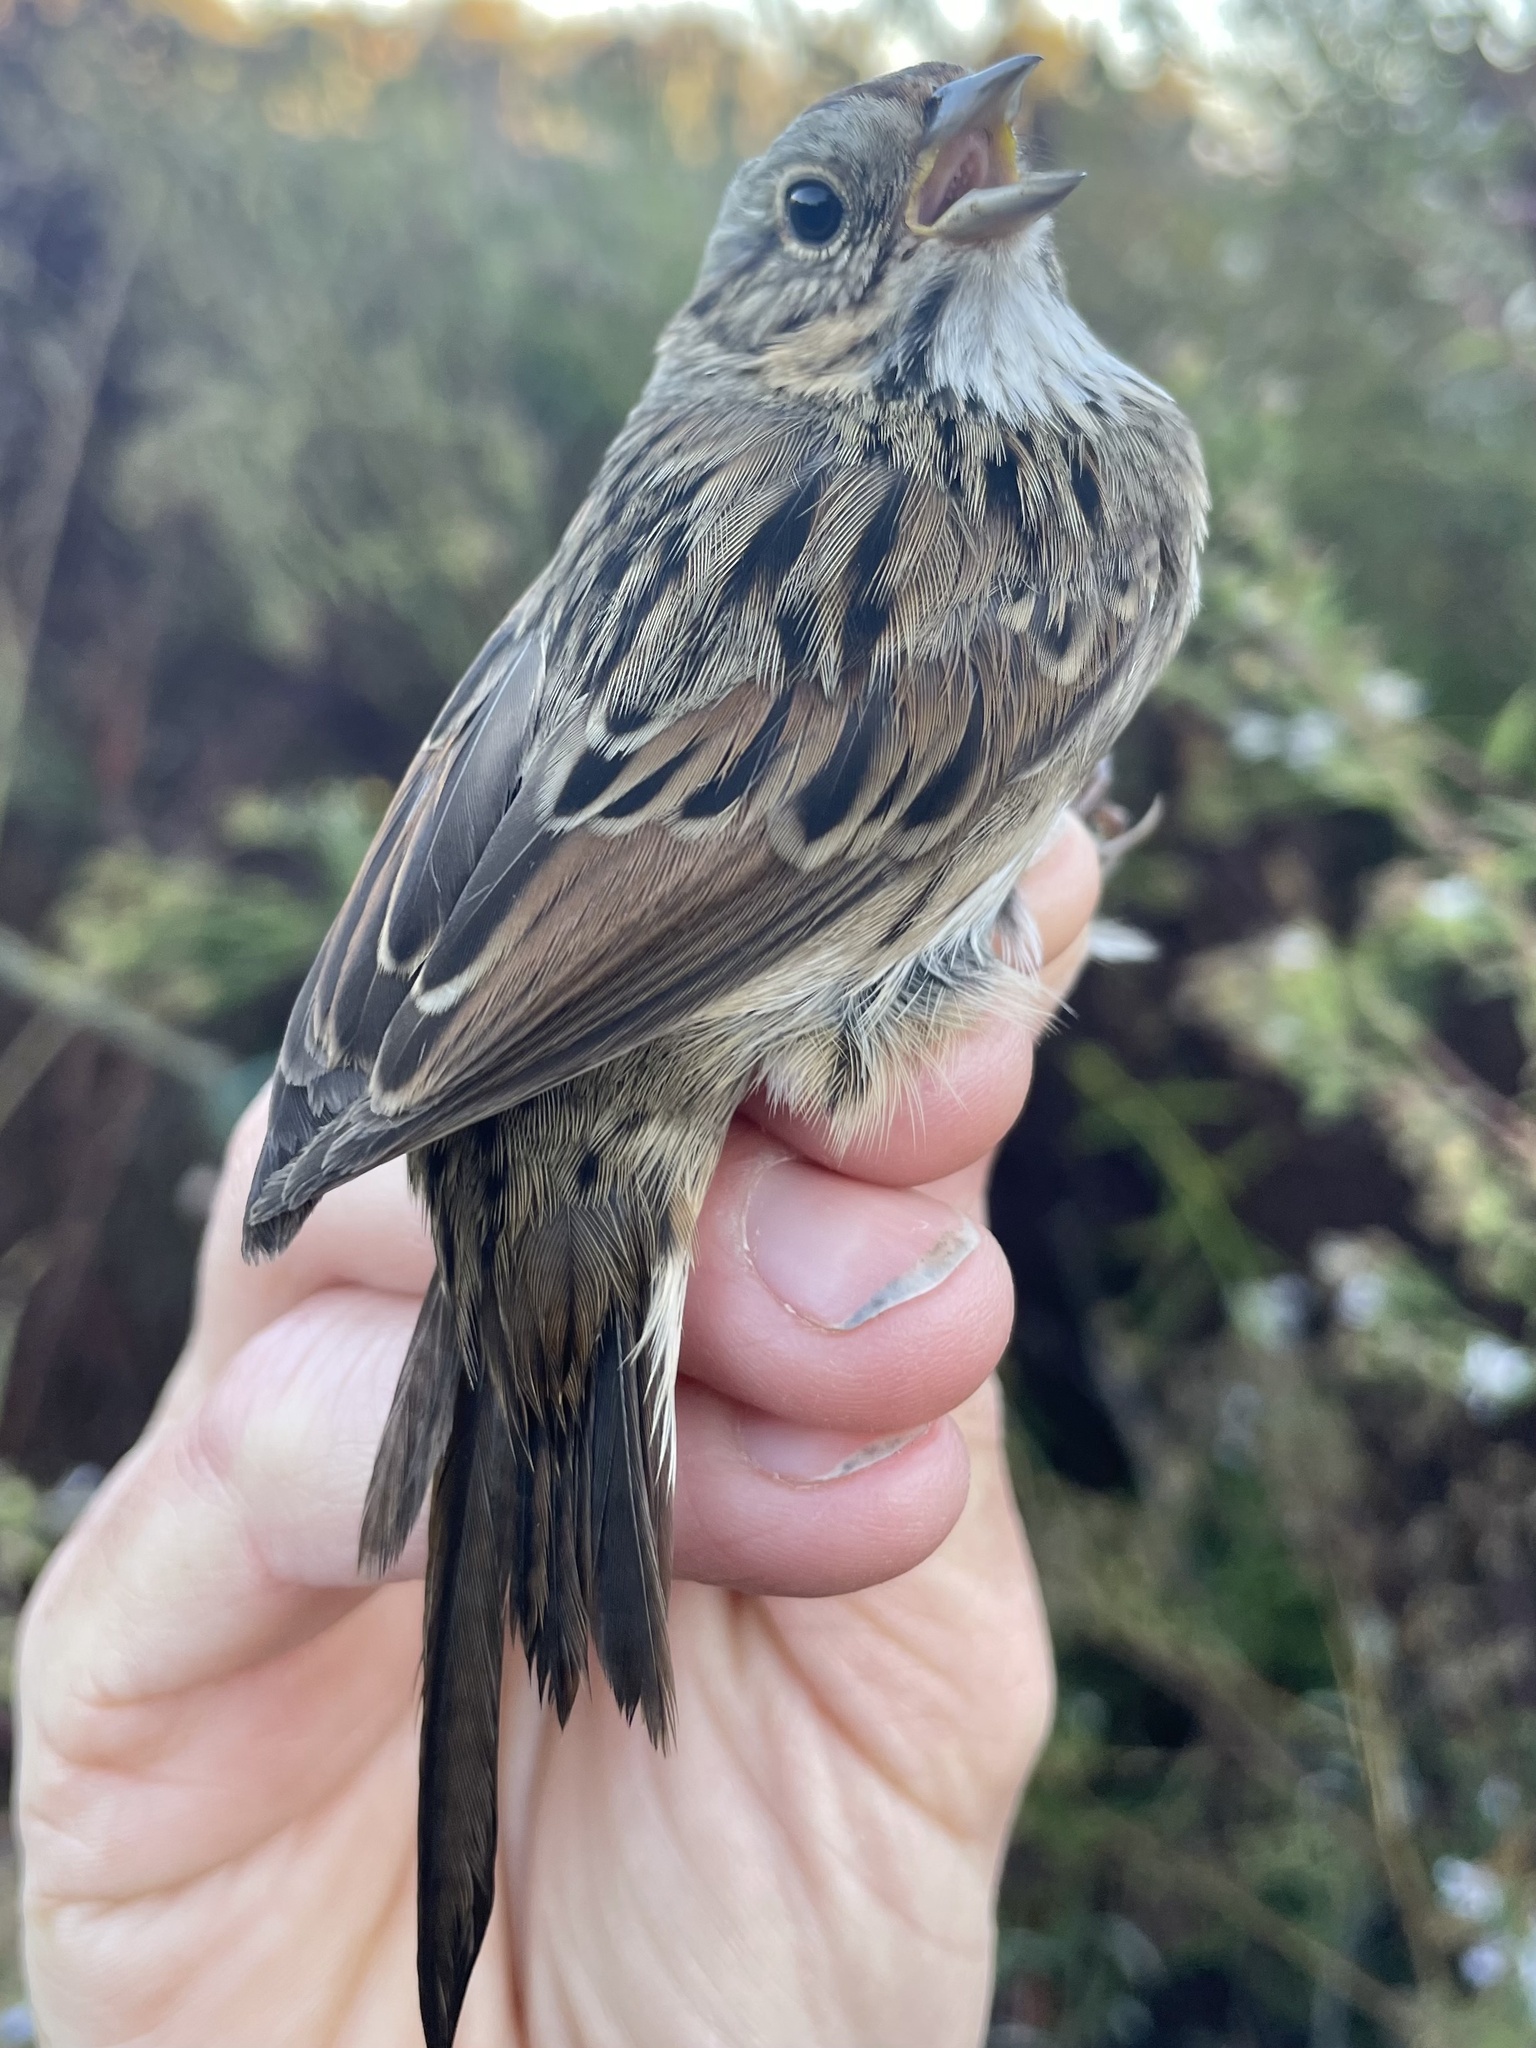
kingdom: Animalia
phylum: Chordata
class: Aves
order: Passeriformes
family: Passerellidae
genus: Melospiza
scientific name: Melospiza lincolnii
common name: Lincoln's sparrow
